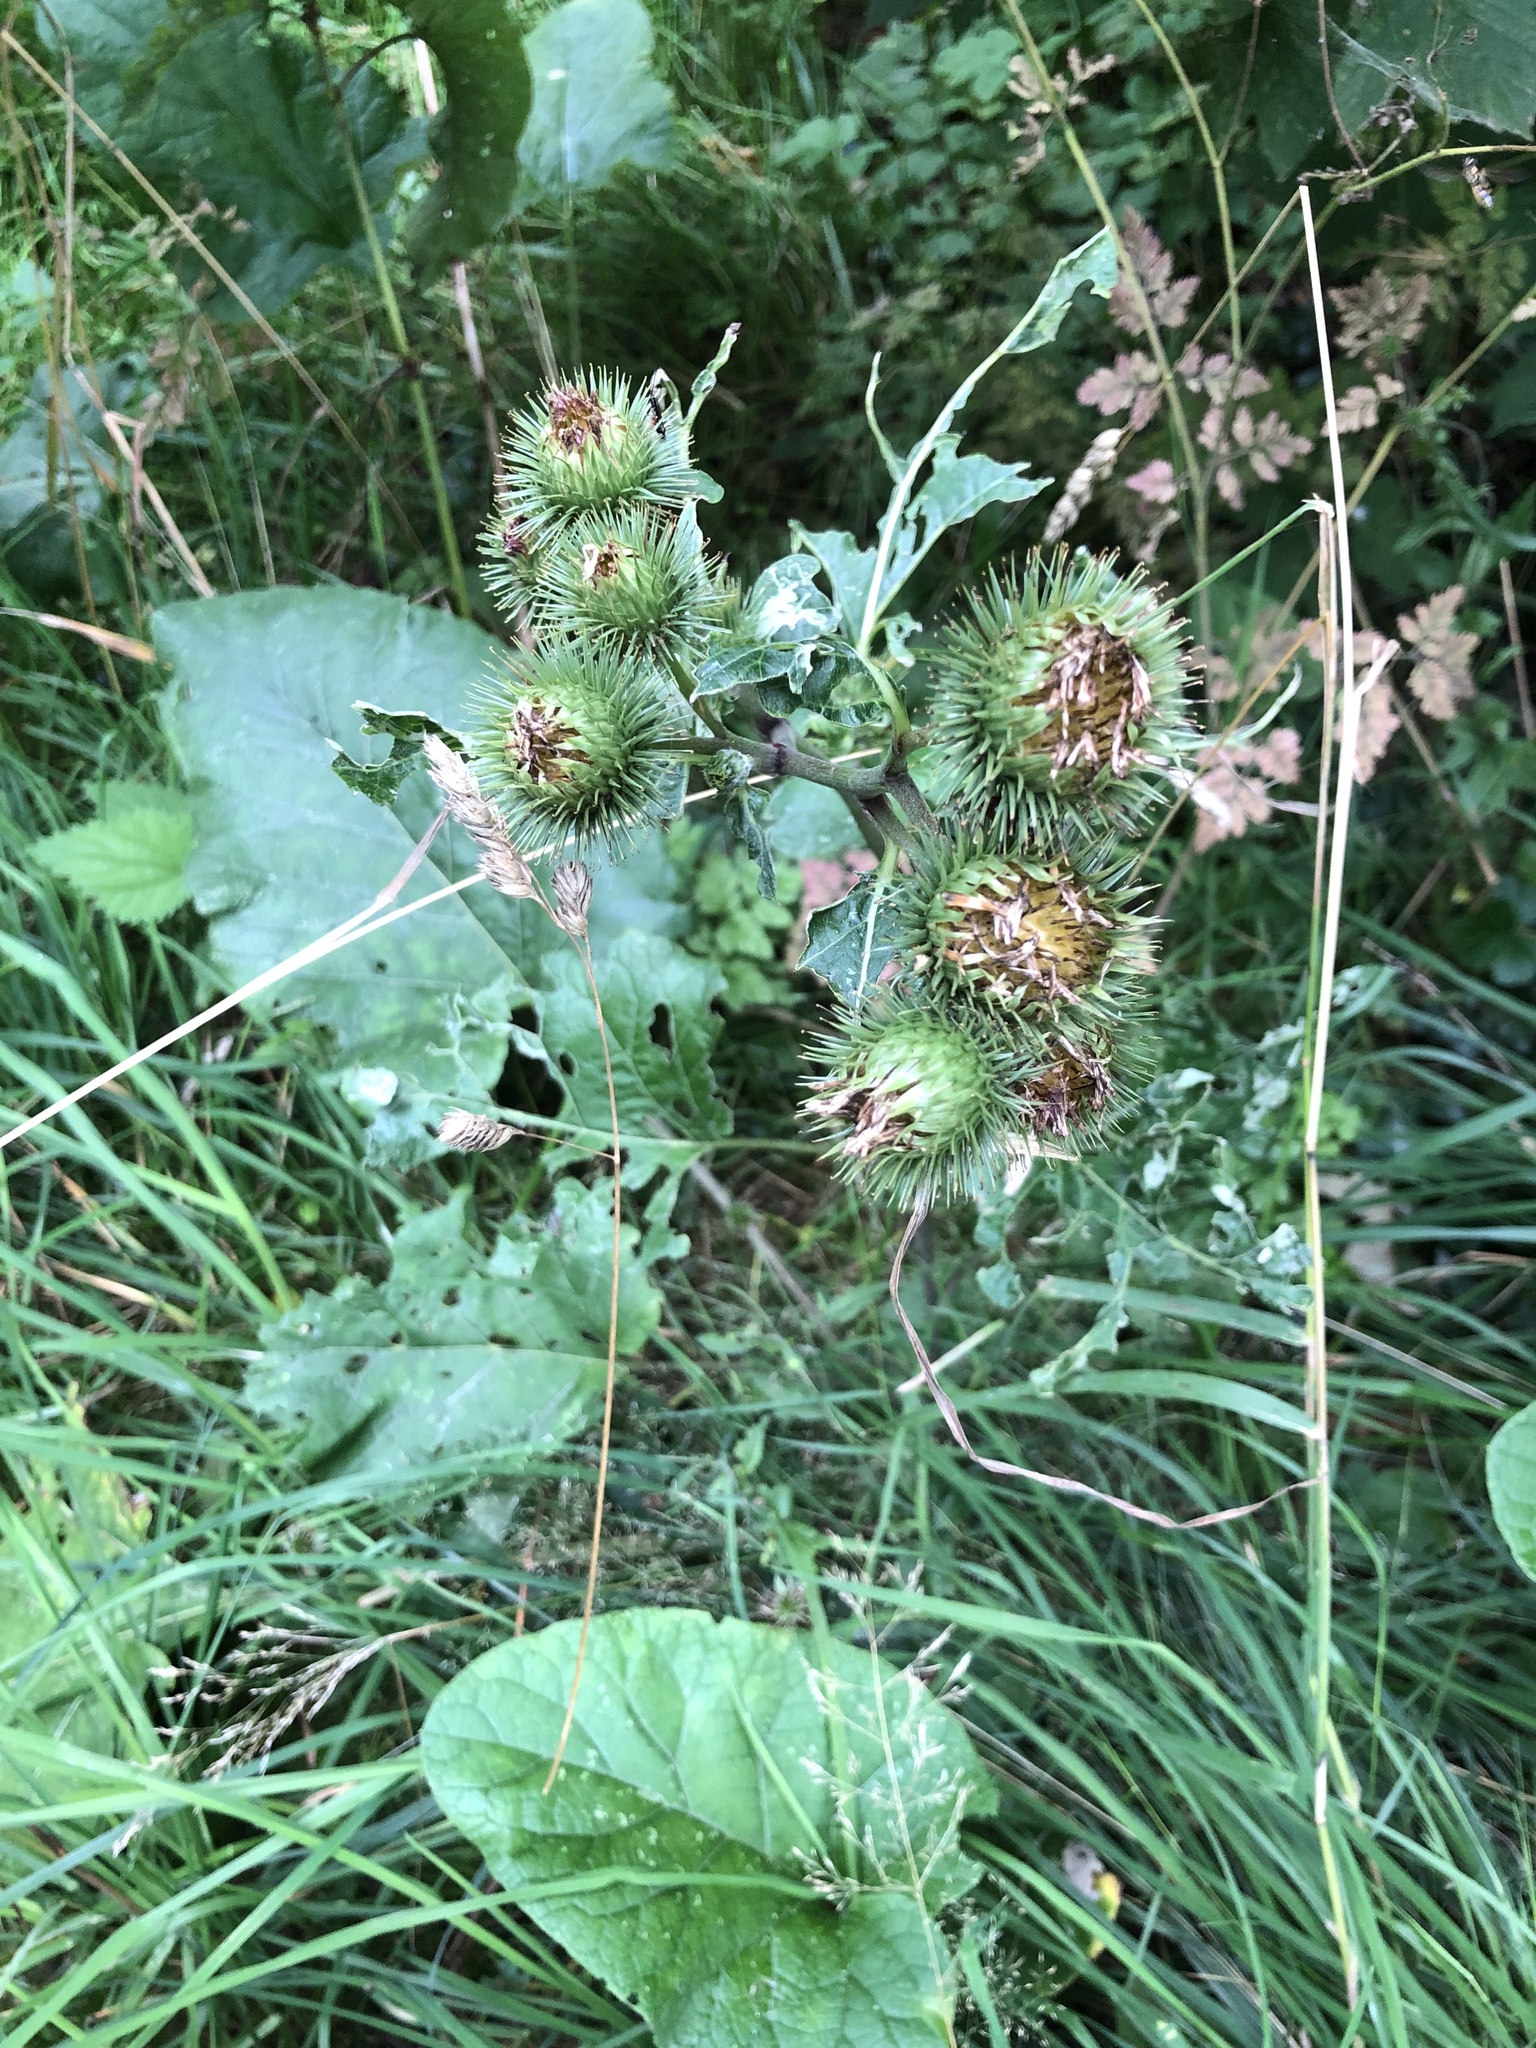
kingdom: Plantae
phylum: Tracheophyta
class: Magnoliopsida
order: Asterales
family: Asteraceae
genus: Arctium
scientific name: Arctium lappa
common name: Greater burdock
